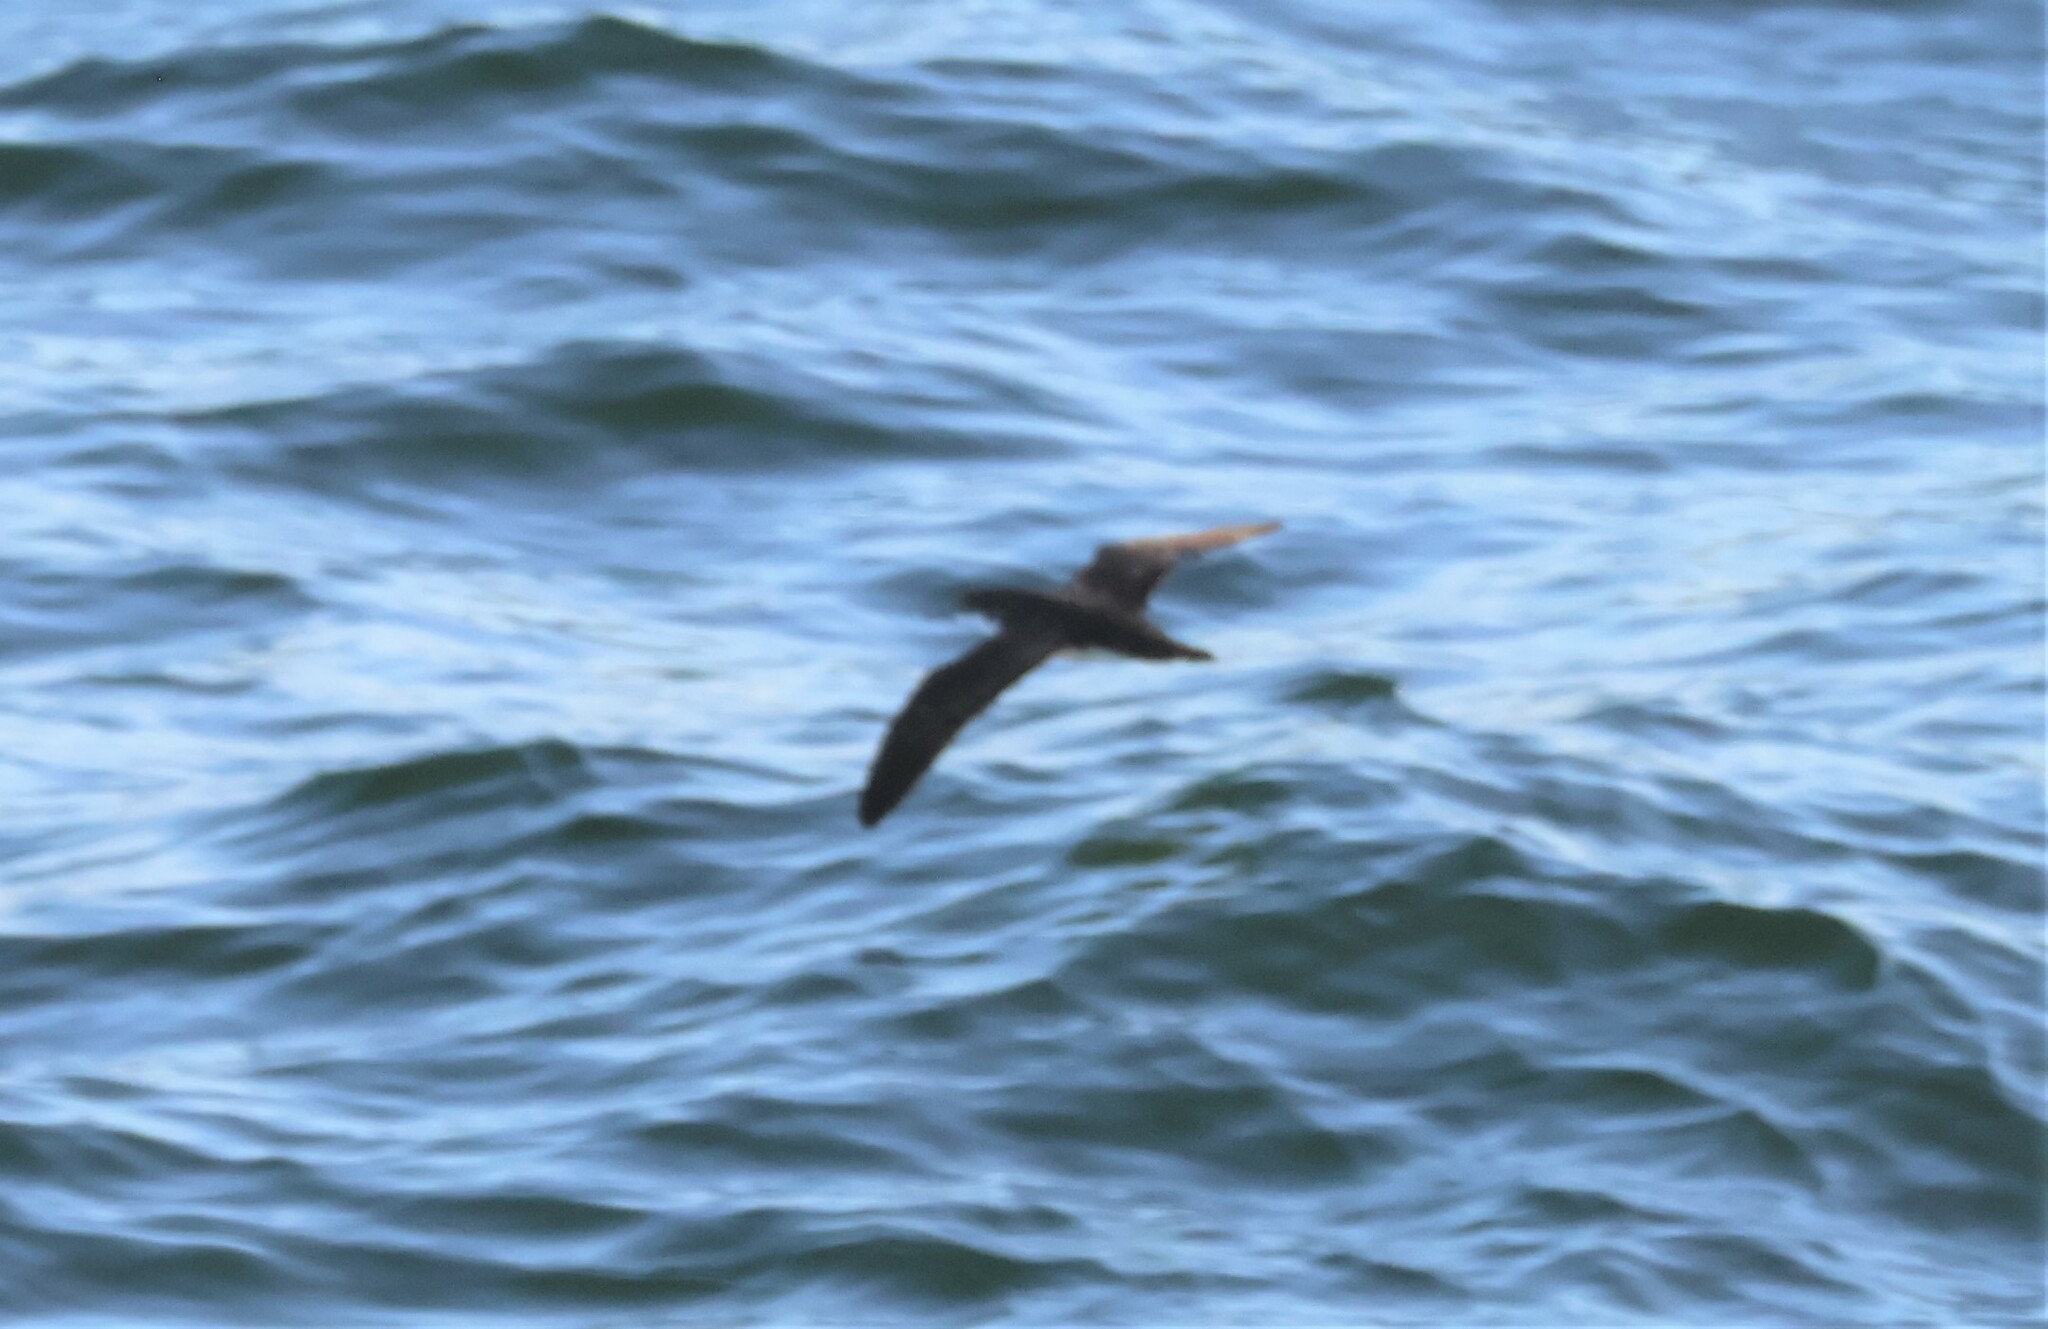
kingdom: Animalia
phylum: Chordata
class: Aves
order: Procellariiformes
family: Procellariidae
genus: Puffinus
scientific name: Puffinus subalaris
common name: Galapagos shearwater
